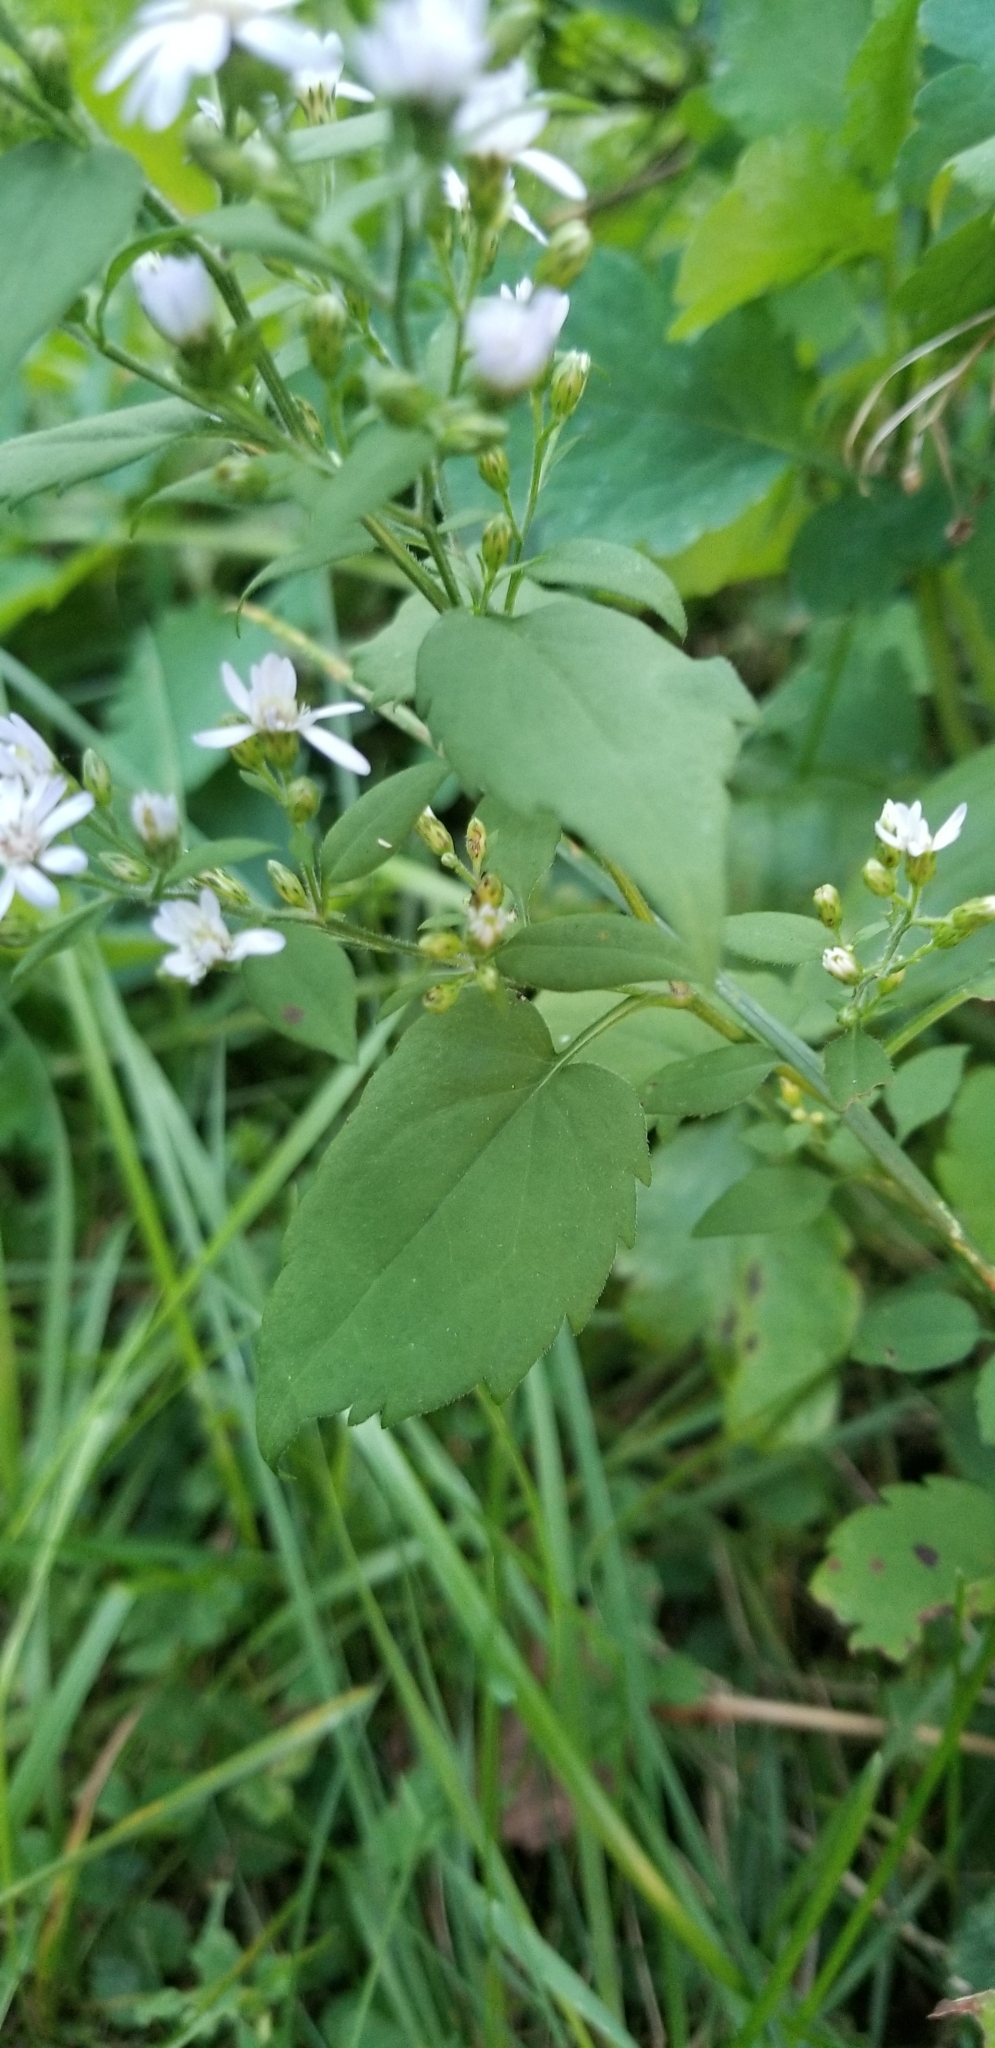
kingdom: Plantae
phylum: Tracheophyta
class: Magnoliopsida
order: Asterales
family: Asteraceae
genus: Symphyotrichum
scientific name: Symphyotrichum cordifolium
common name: Beeweed
